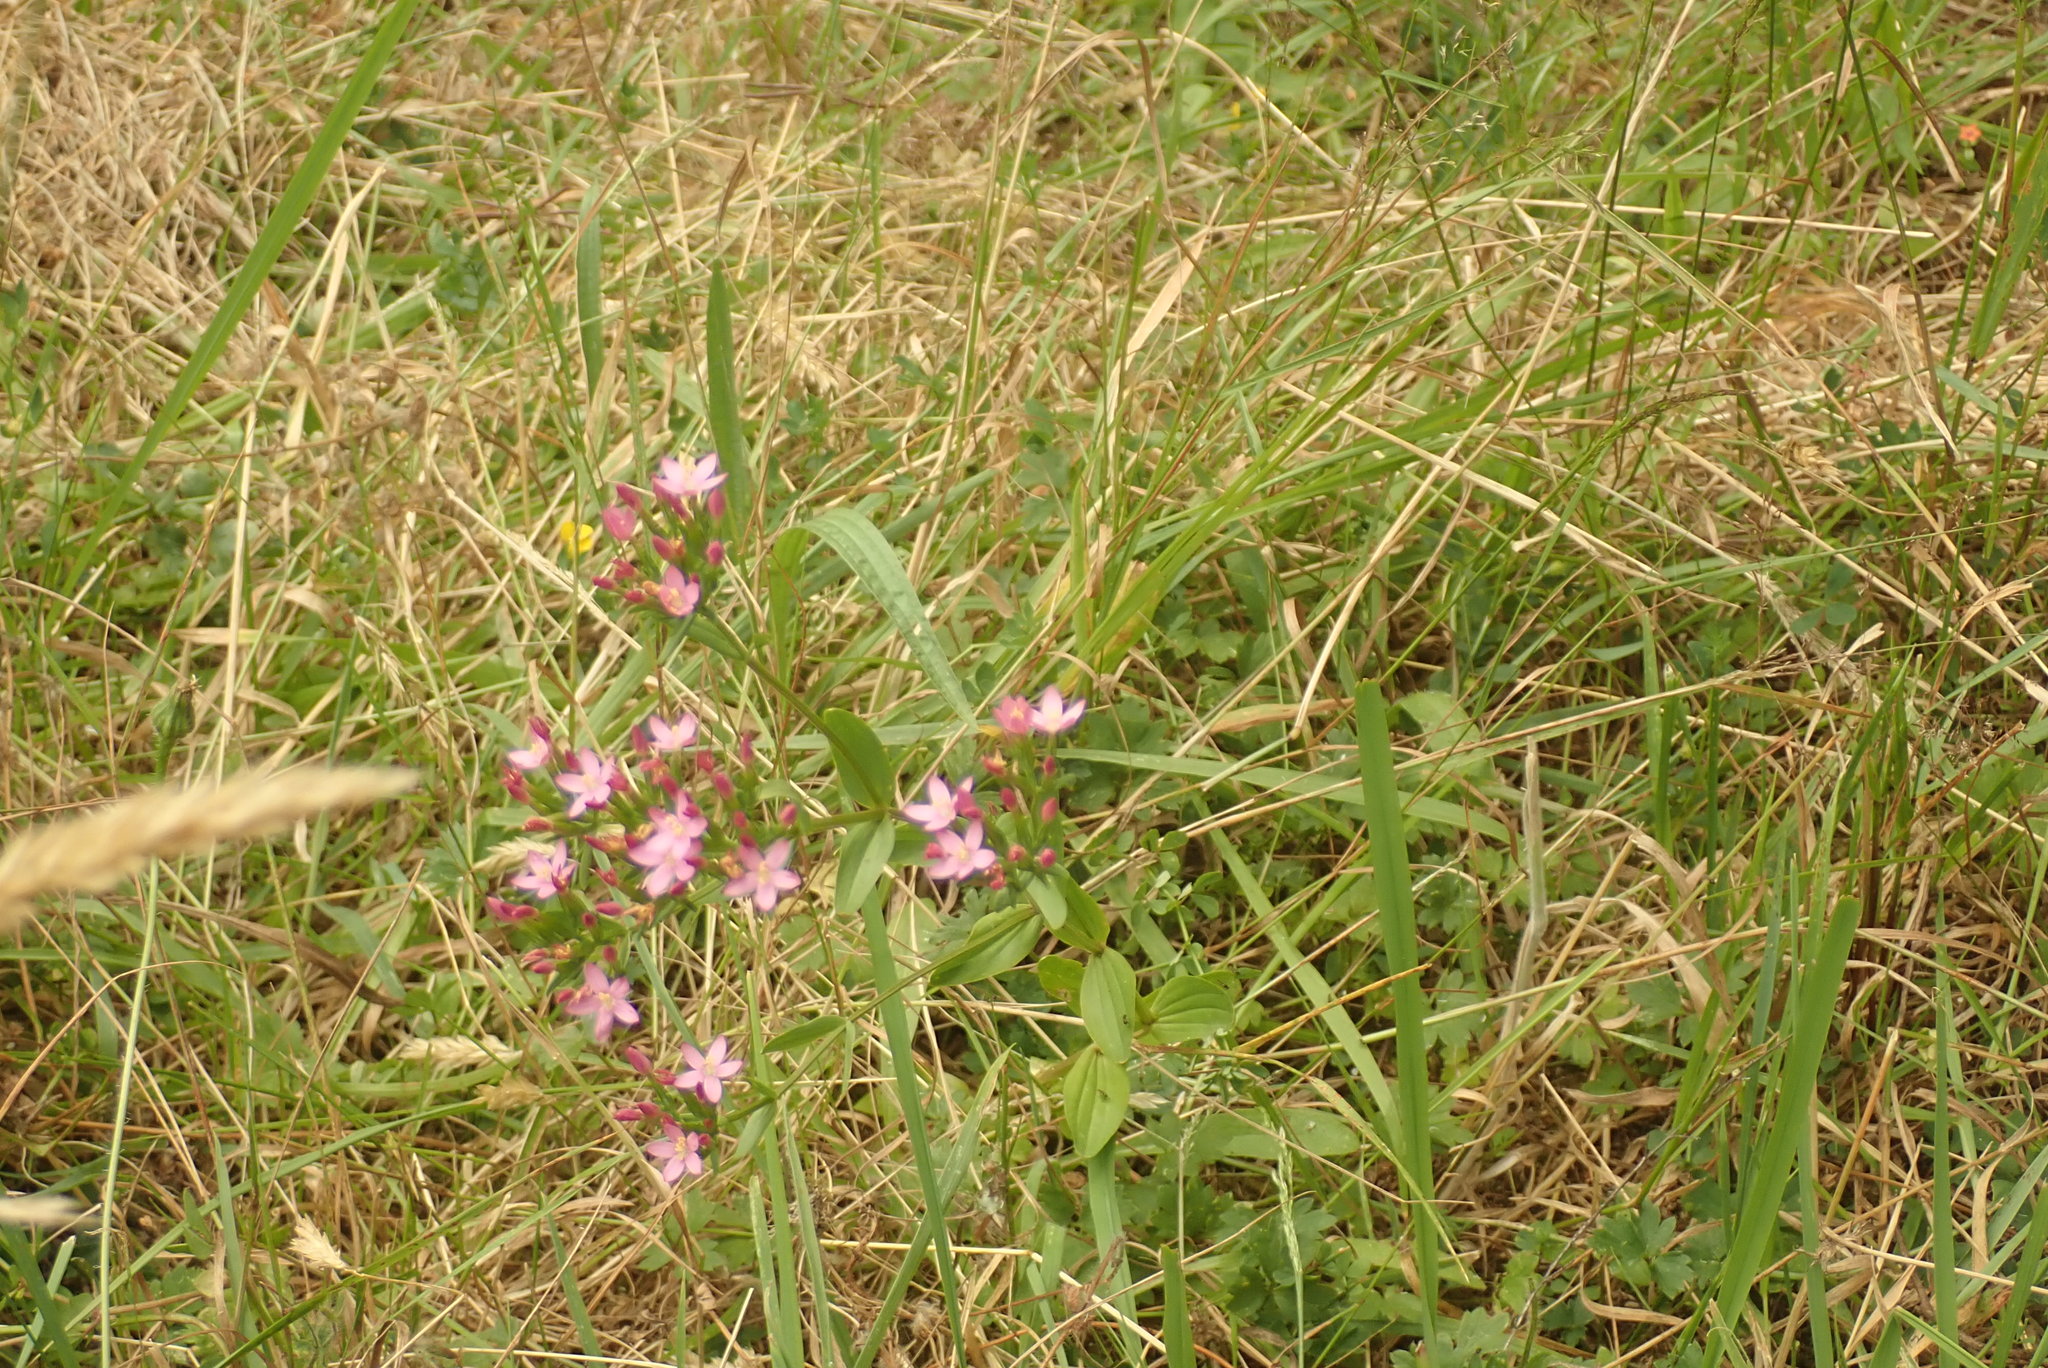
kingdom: Plantae
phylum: Tracheophyta
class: Magnoliopsida
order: Gentianales
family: Gentianaceae
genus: Centaurium
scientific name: Centaurium erythraea
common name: Common centaury
